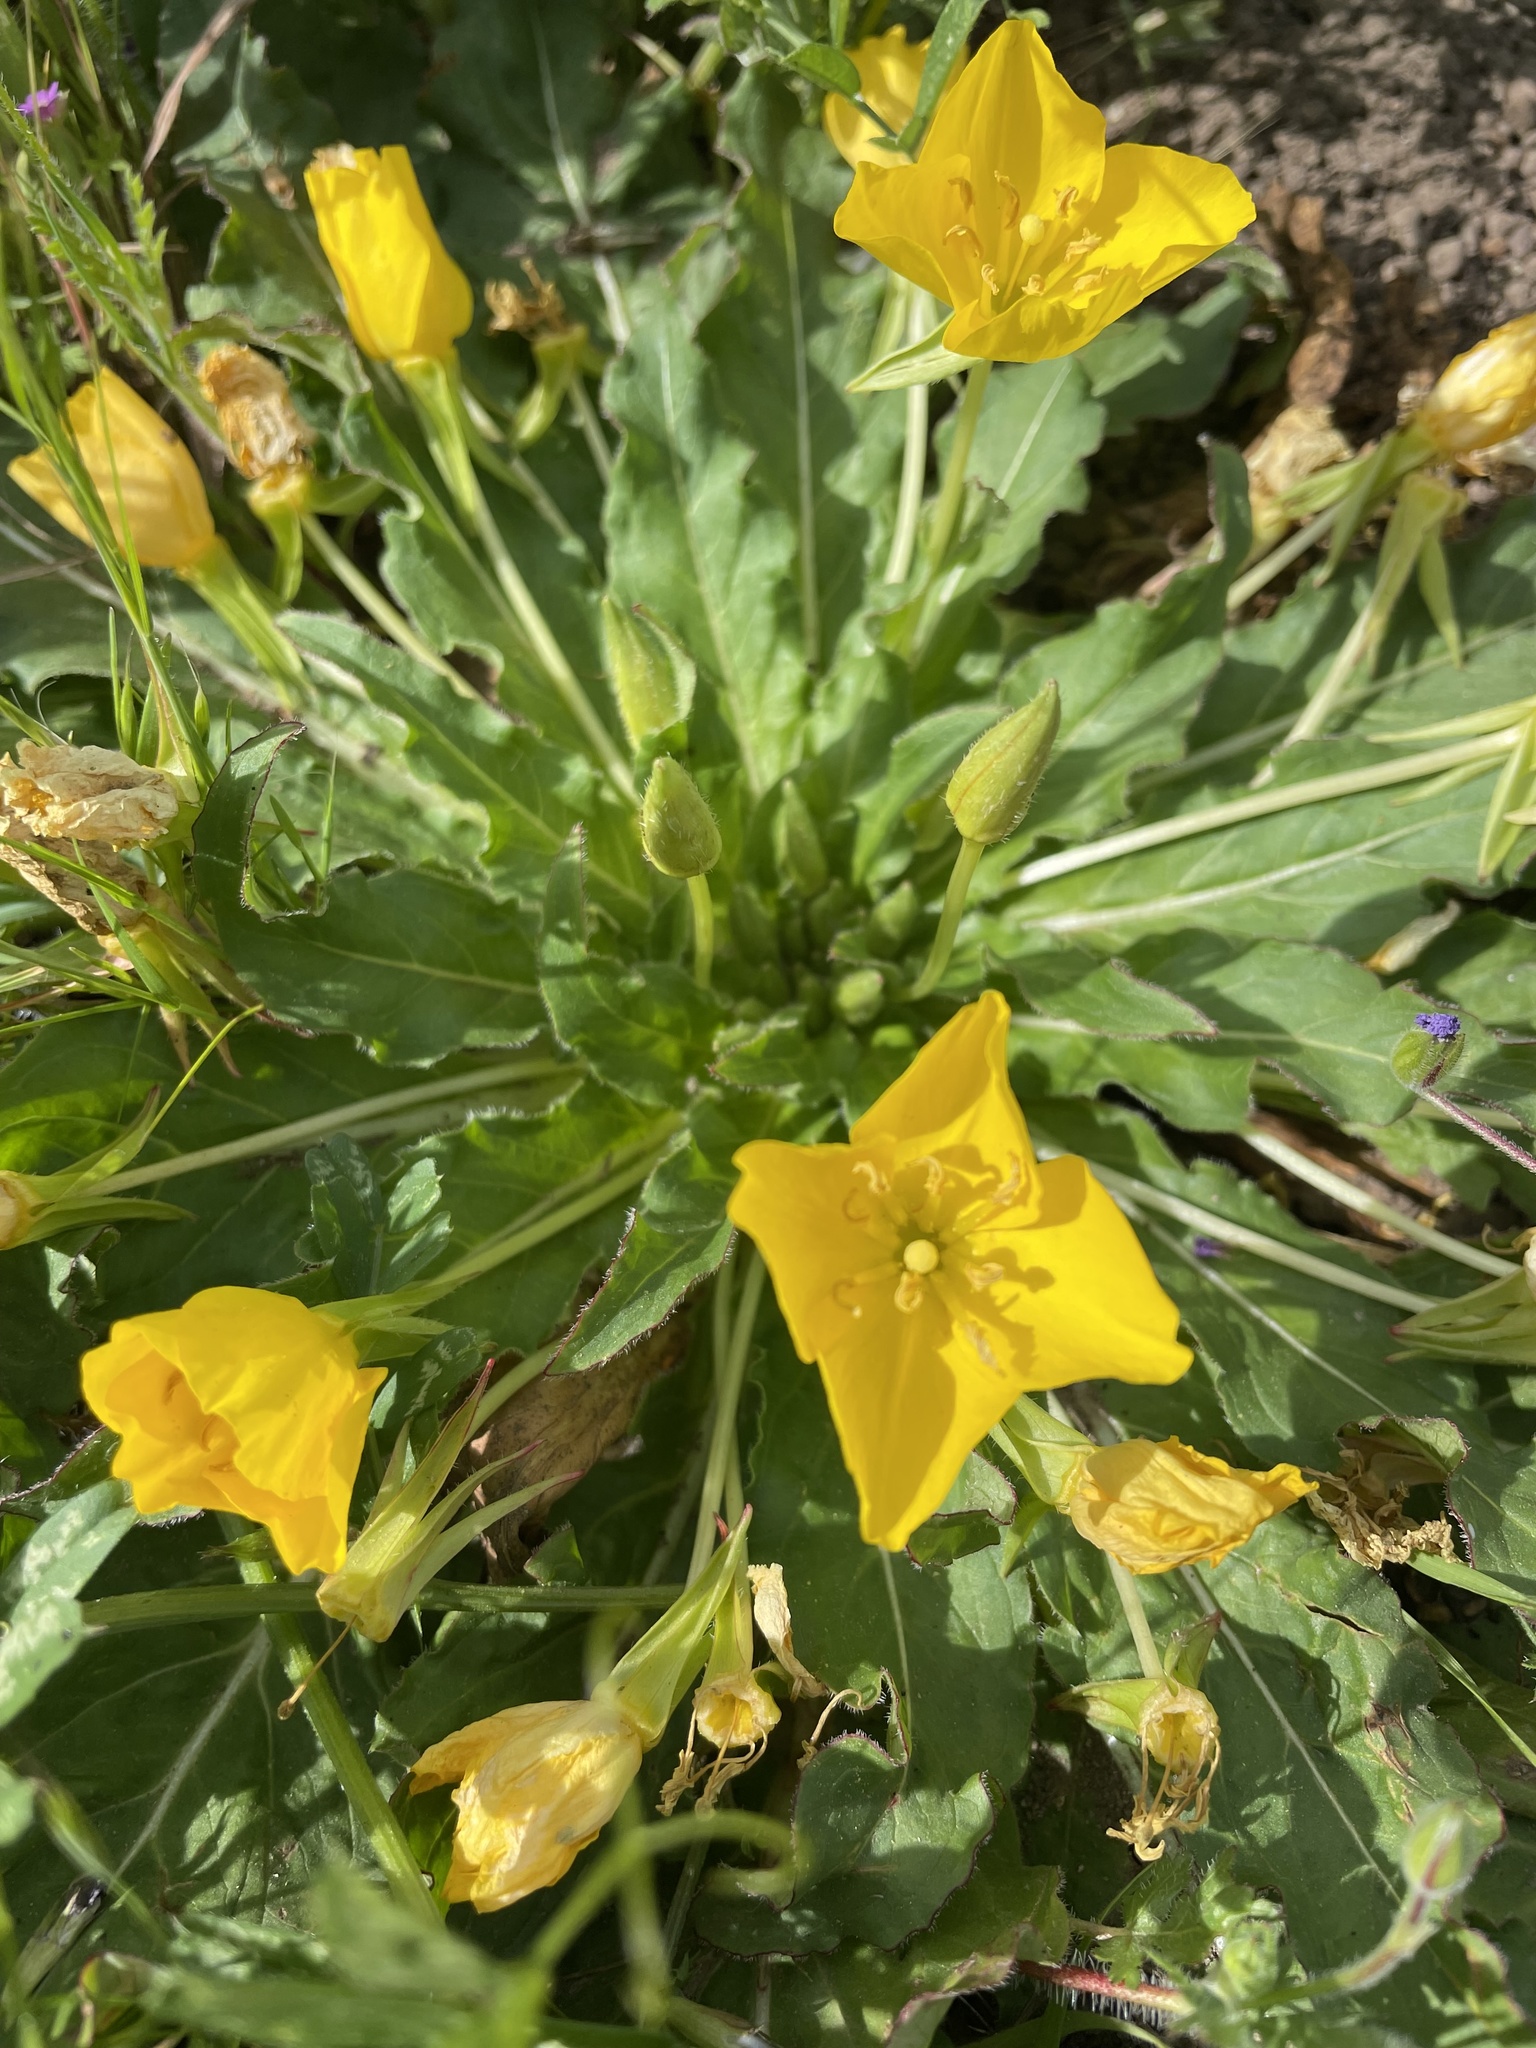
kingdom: Plantae
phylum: Tracheophyta
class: Magnoliopsida
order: Myrtales
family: Onagraceae
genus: Taraxia
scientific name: Taraxia ovata
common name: Goldeneggs
